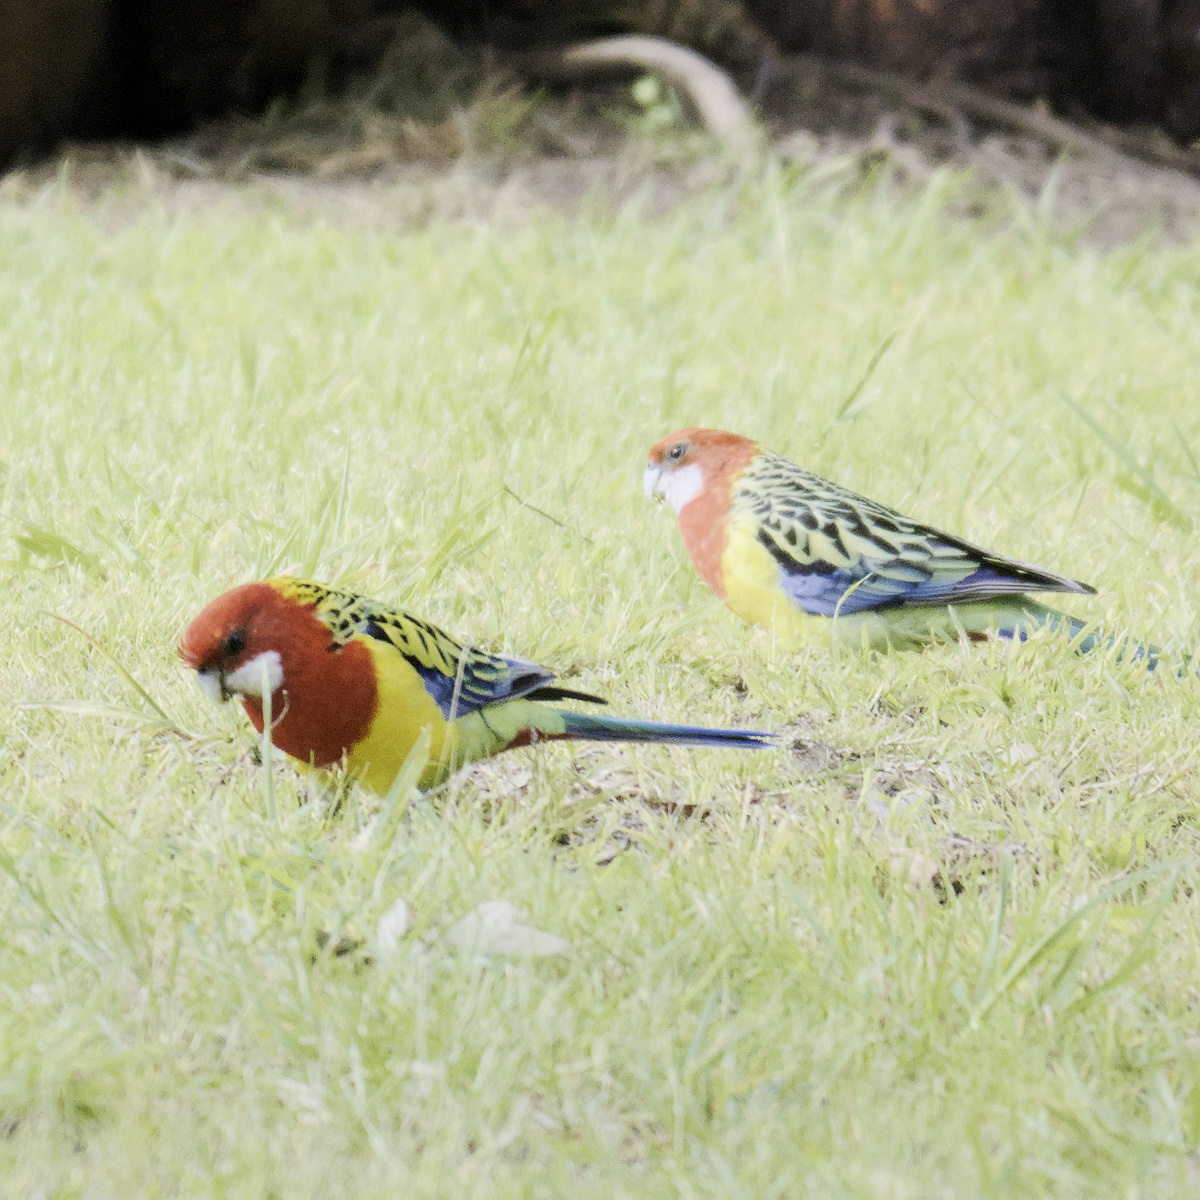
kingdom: Animalia
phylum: Chordata
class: Aves
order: Psittaciformes
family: Psittacidae
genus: Platycercus
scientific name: Platycercus eximius
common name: Eastern rosella
